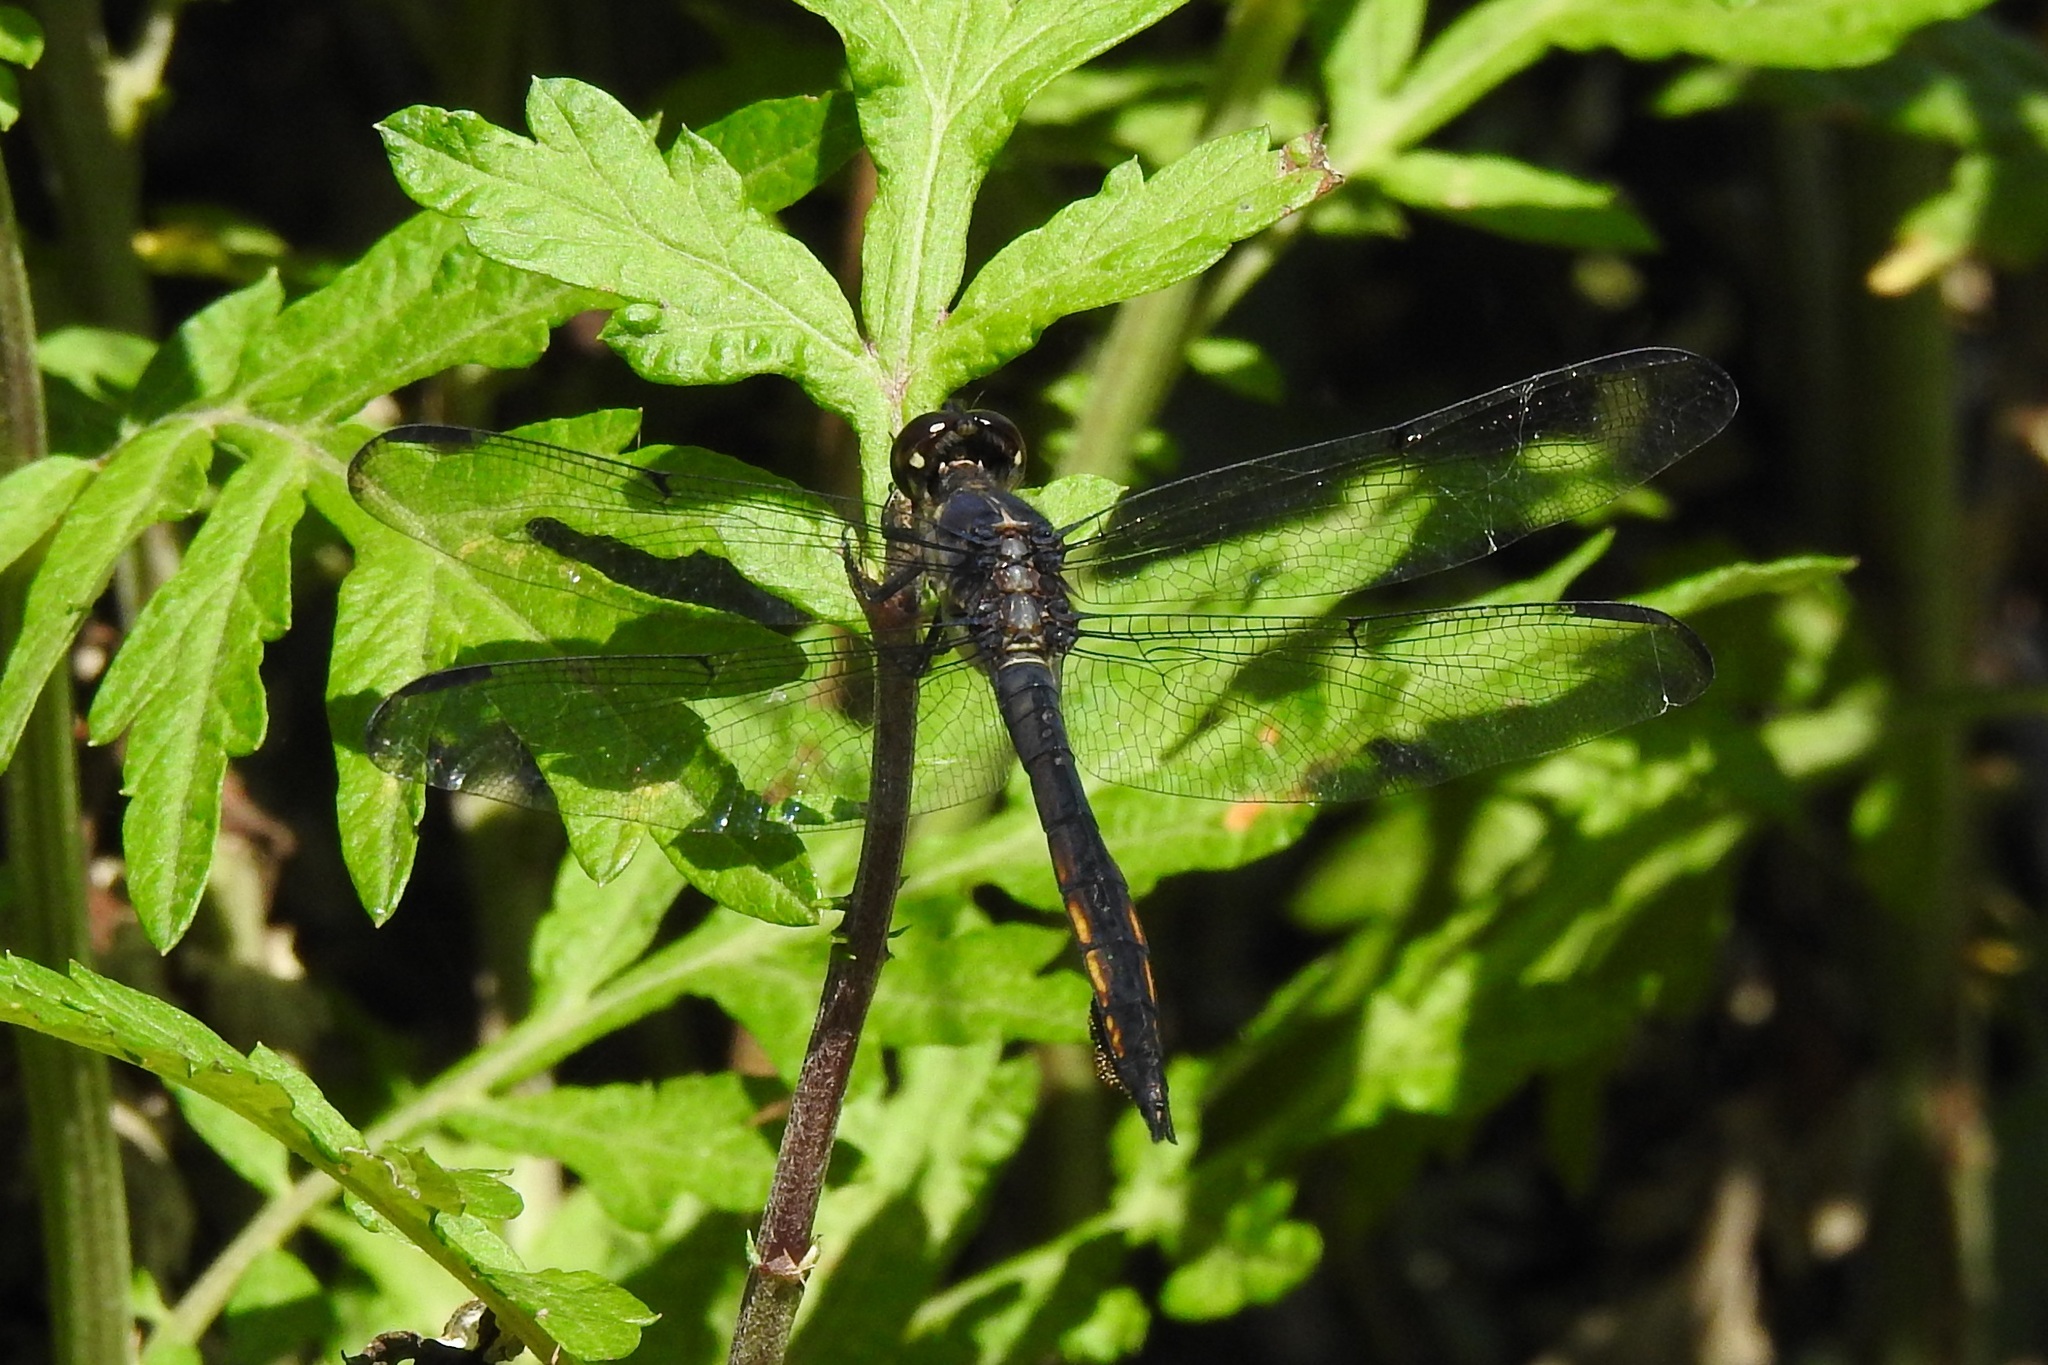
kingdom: Animalia
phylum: Arthropoda
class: Insecta
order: Odonata
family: Libellulidae
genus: Libellula
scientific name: Libellula incesta
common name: Slaty skimmer
